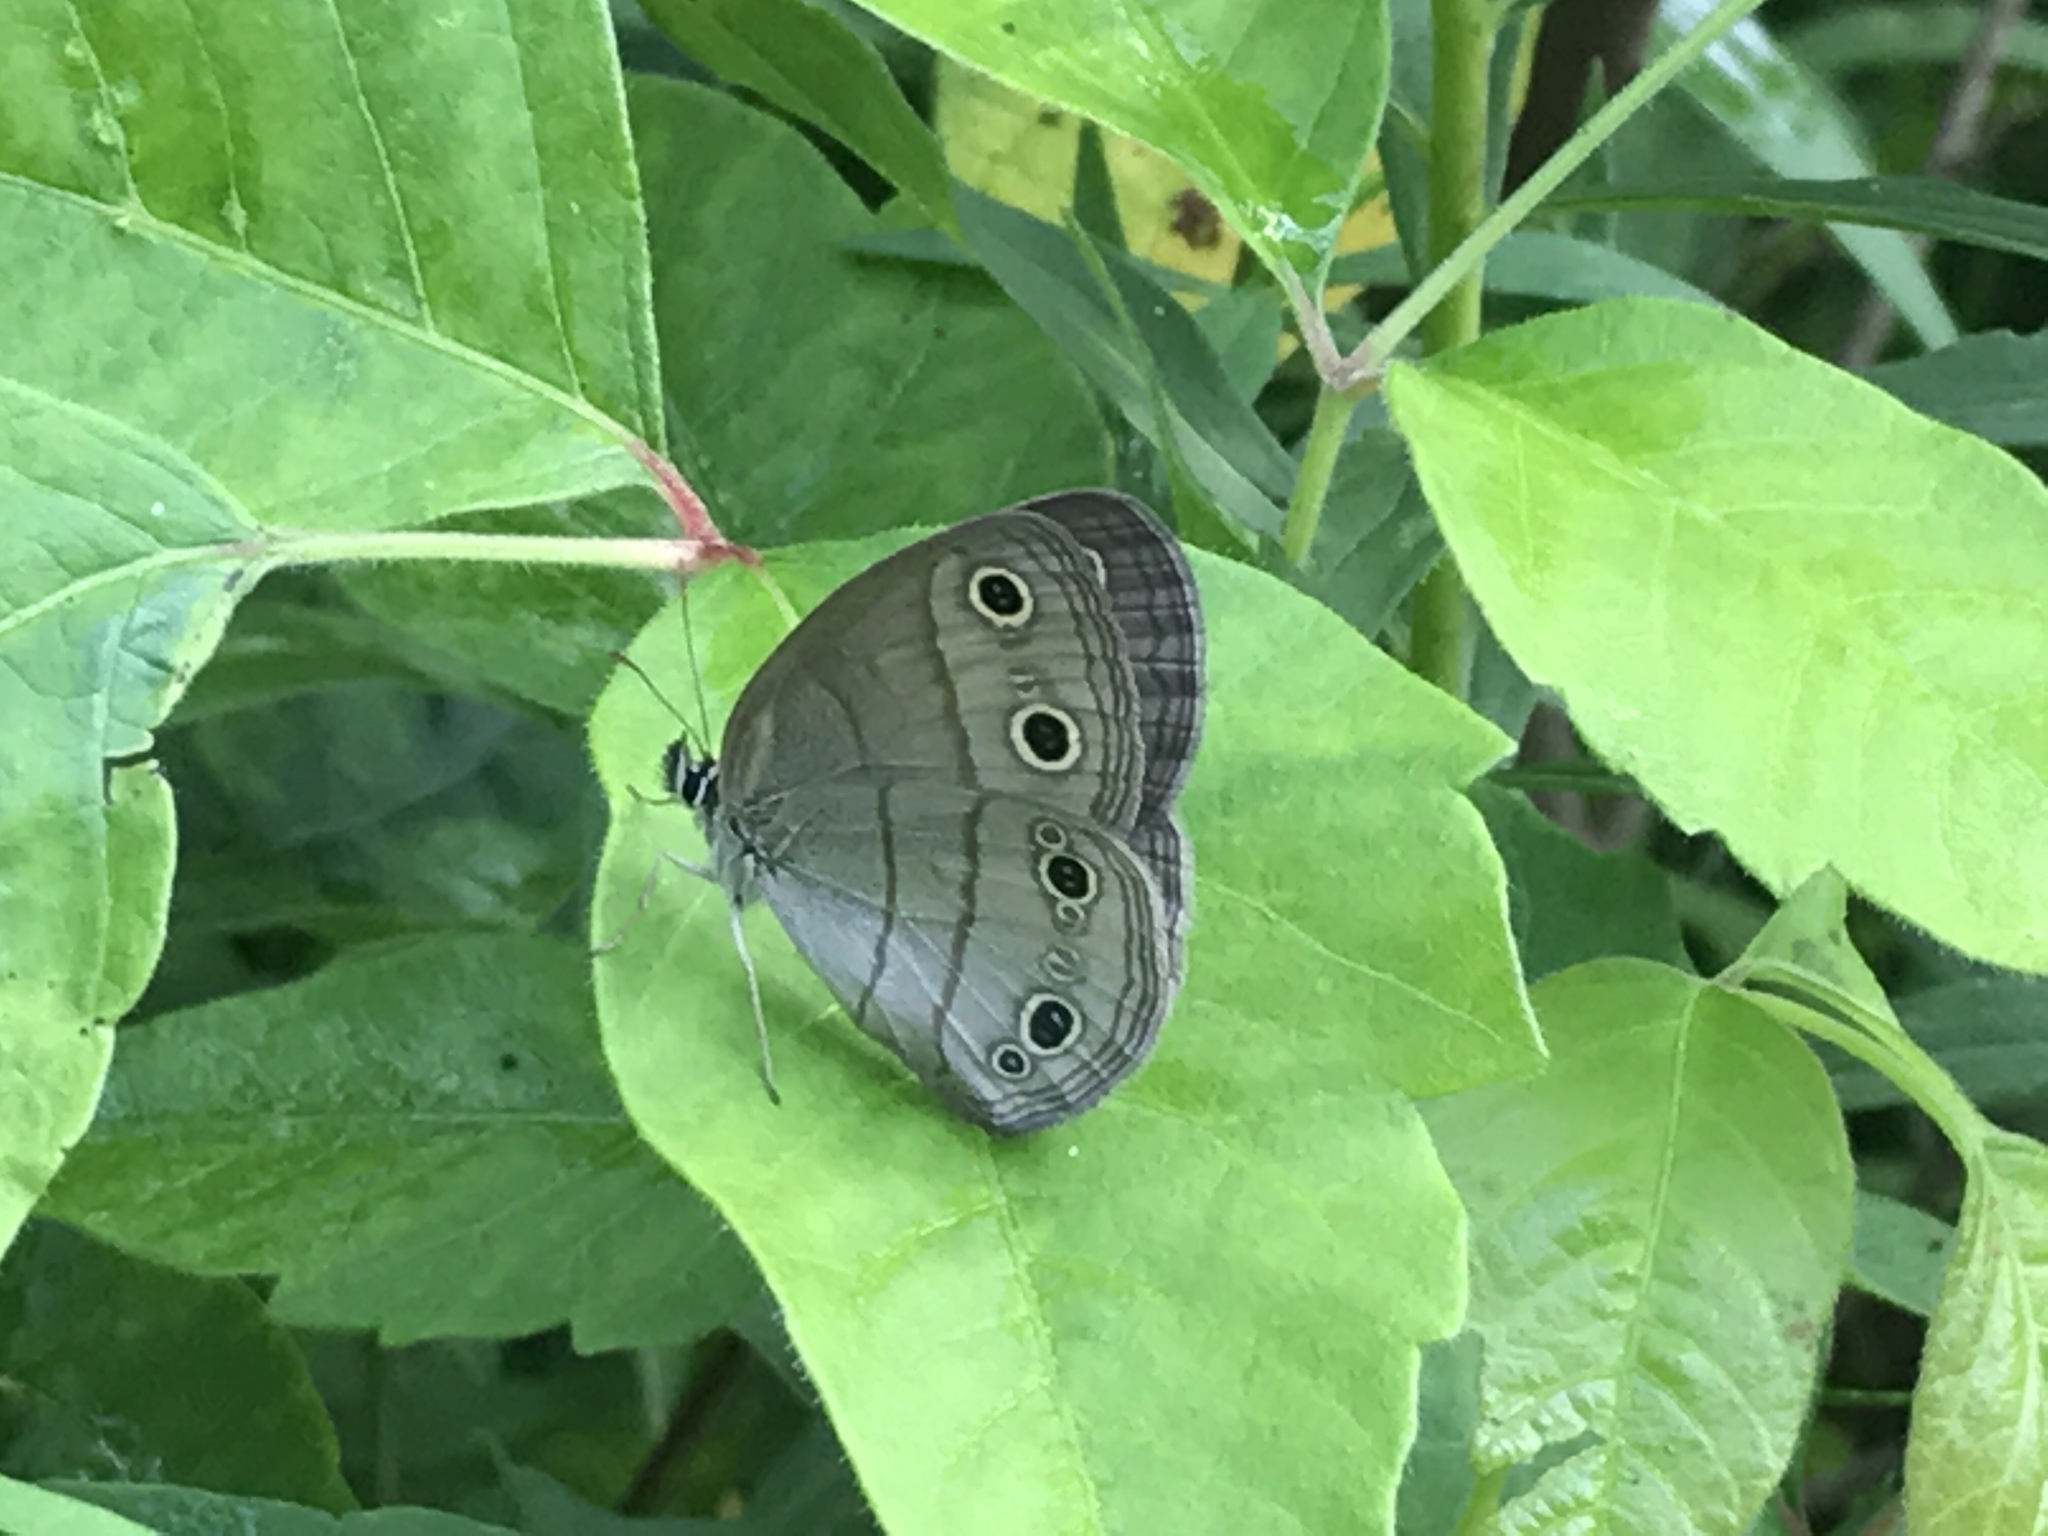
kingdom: Animalia
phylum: Arthropoda
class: Insecta
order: Lepidoptera
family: Nymphalidae
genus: Euptychia
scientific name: Euptychia cymela
